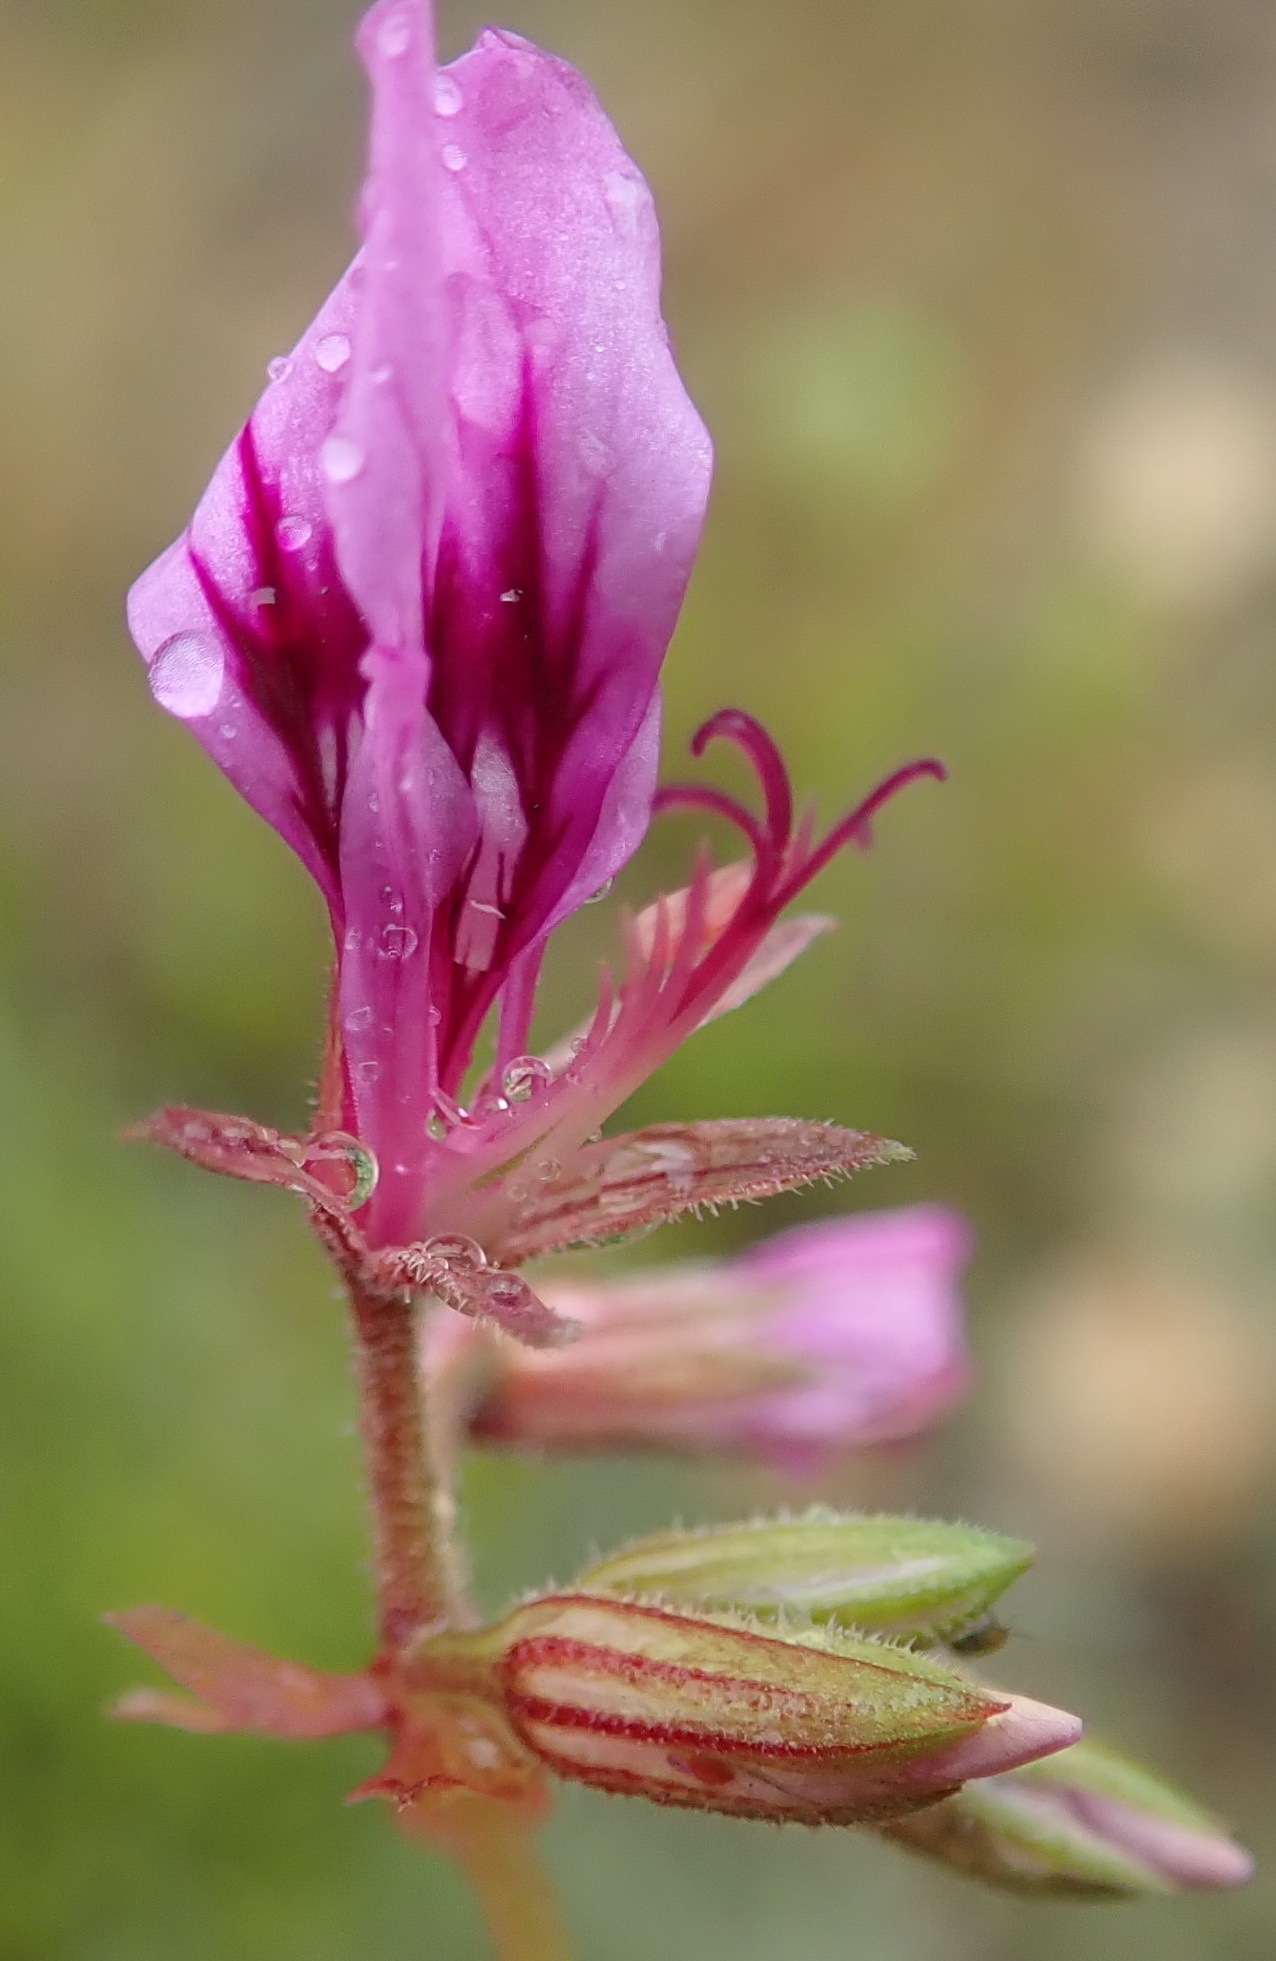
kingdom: Plantae
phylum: Tracheophyta
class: Magnoliopsida
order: Geraniales
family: Geraniaceae
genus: Pelargonium
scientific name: Pelargonium multicaule
